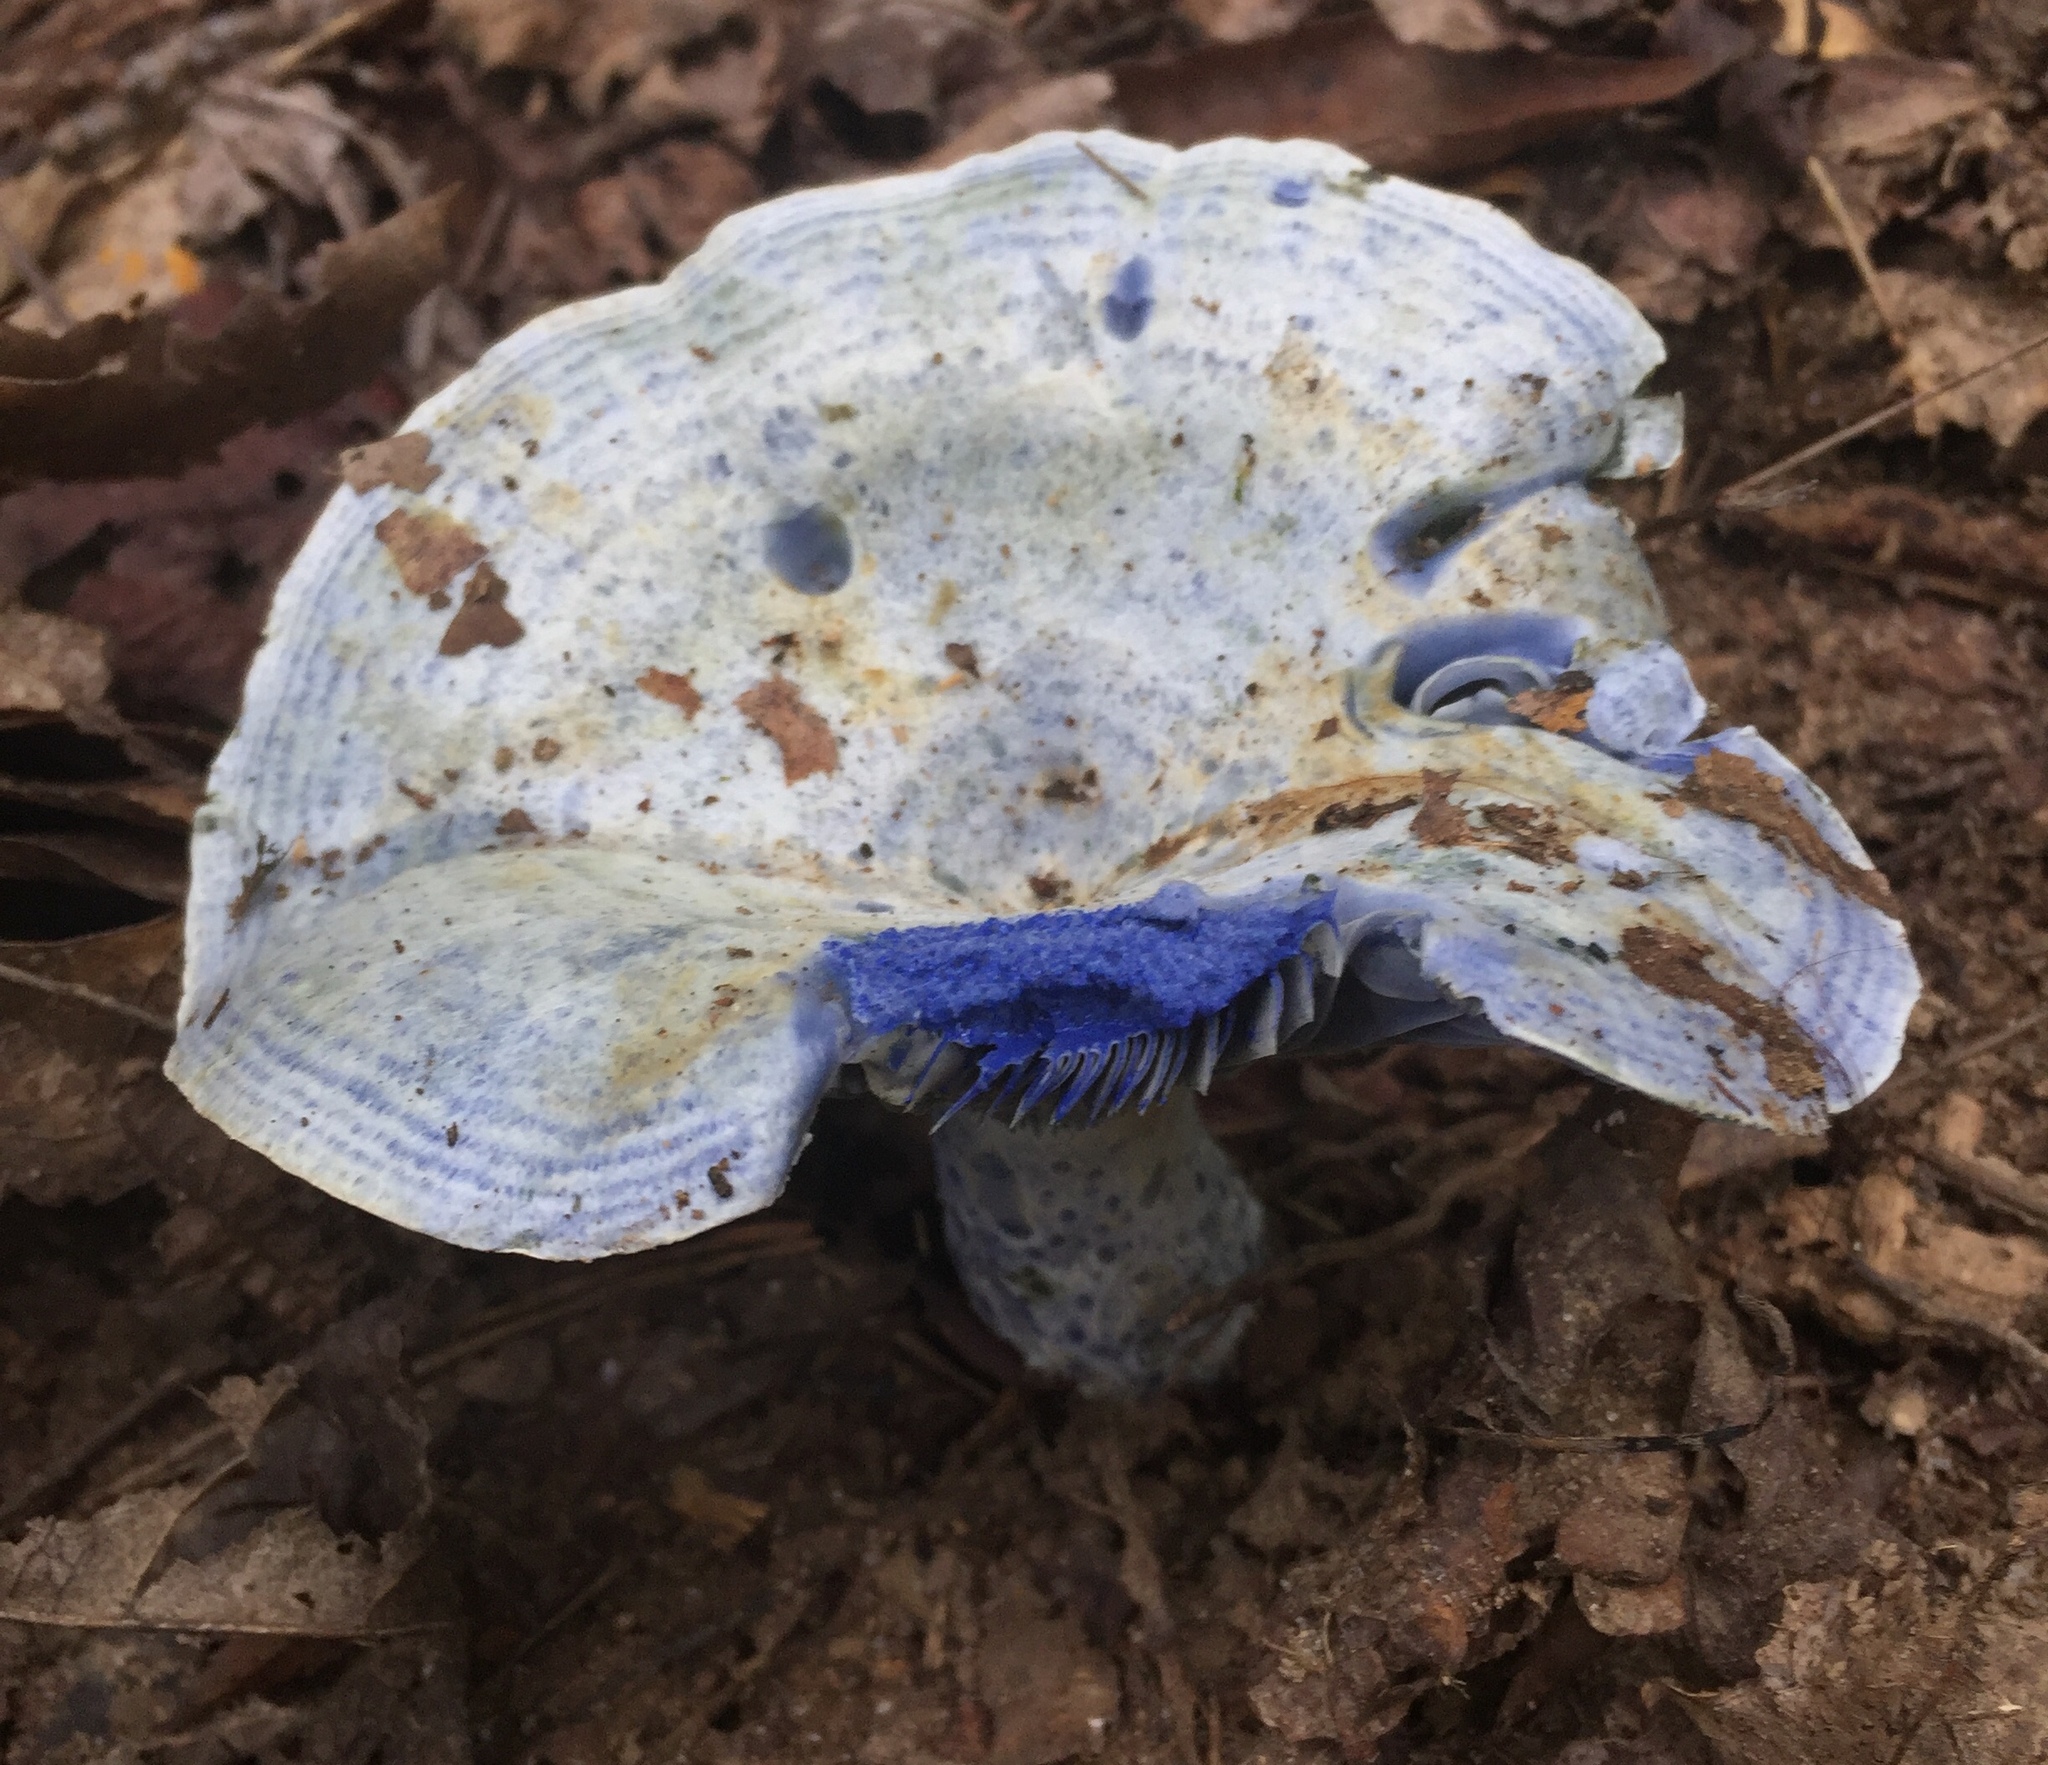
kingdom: Fungi
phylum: Basidiomycota
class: Agaricomycetes
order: Russulales
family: Russulaceae
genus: Lactarius
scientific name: Lactarius indigo
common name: Indigo milk cap
